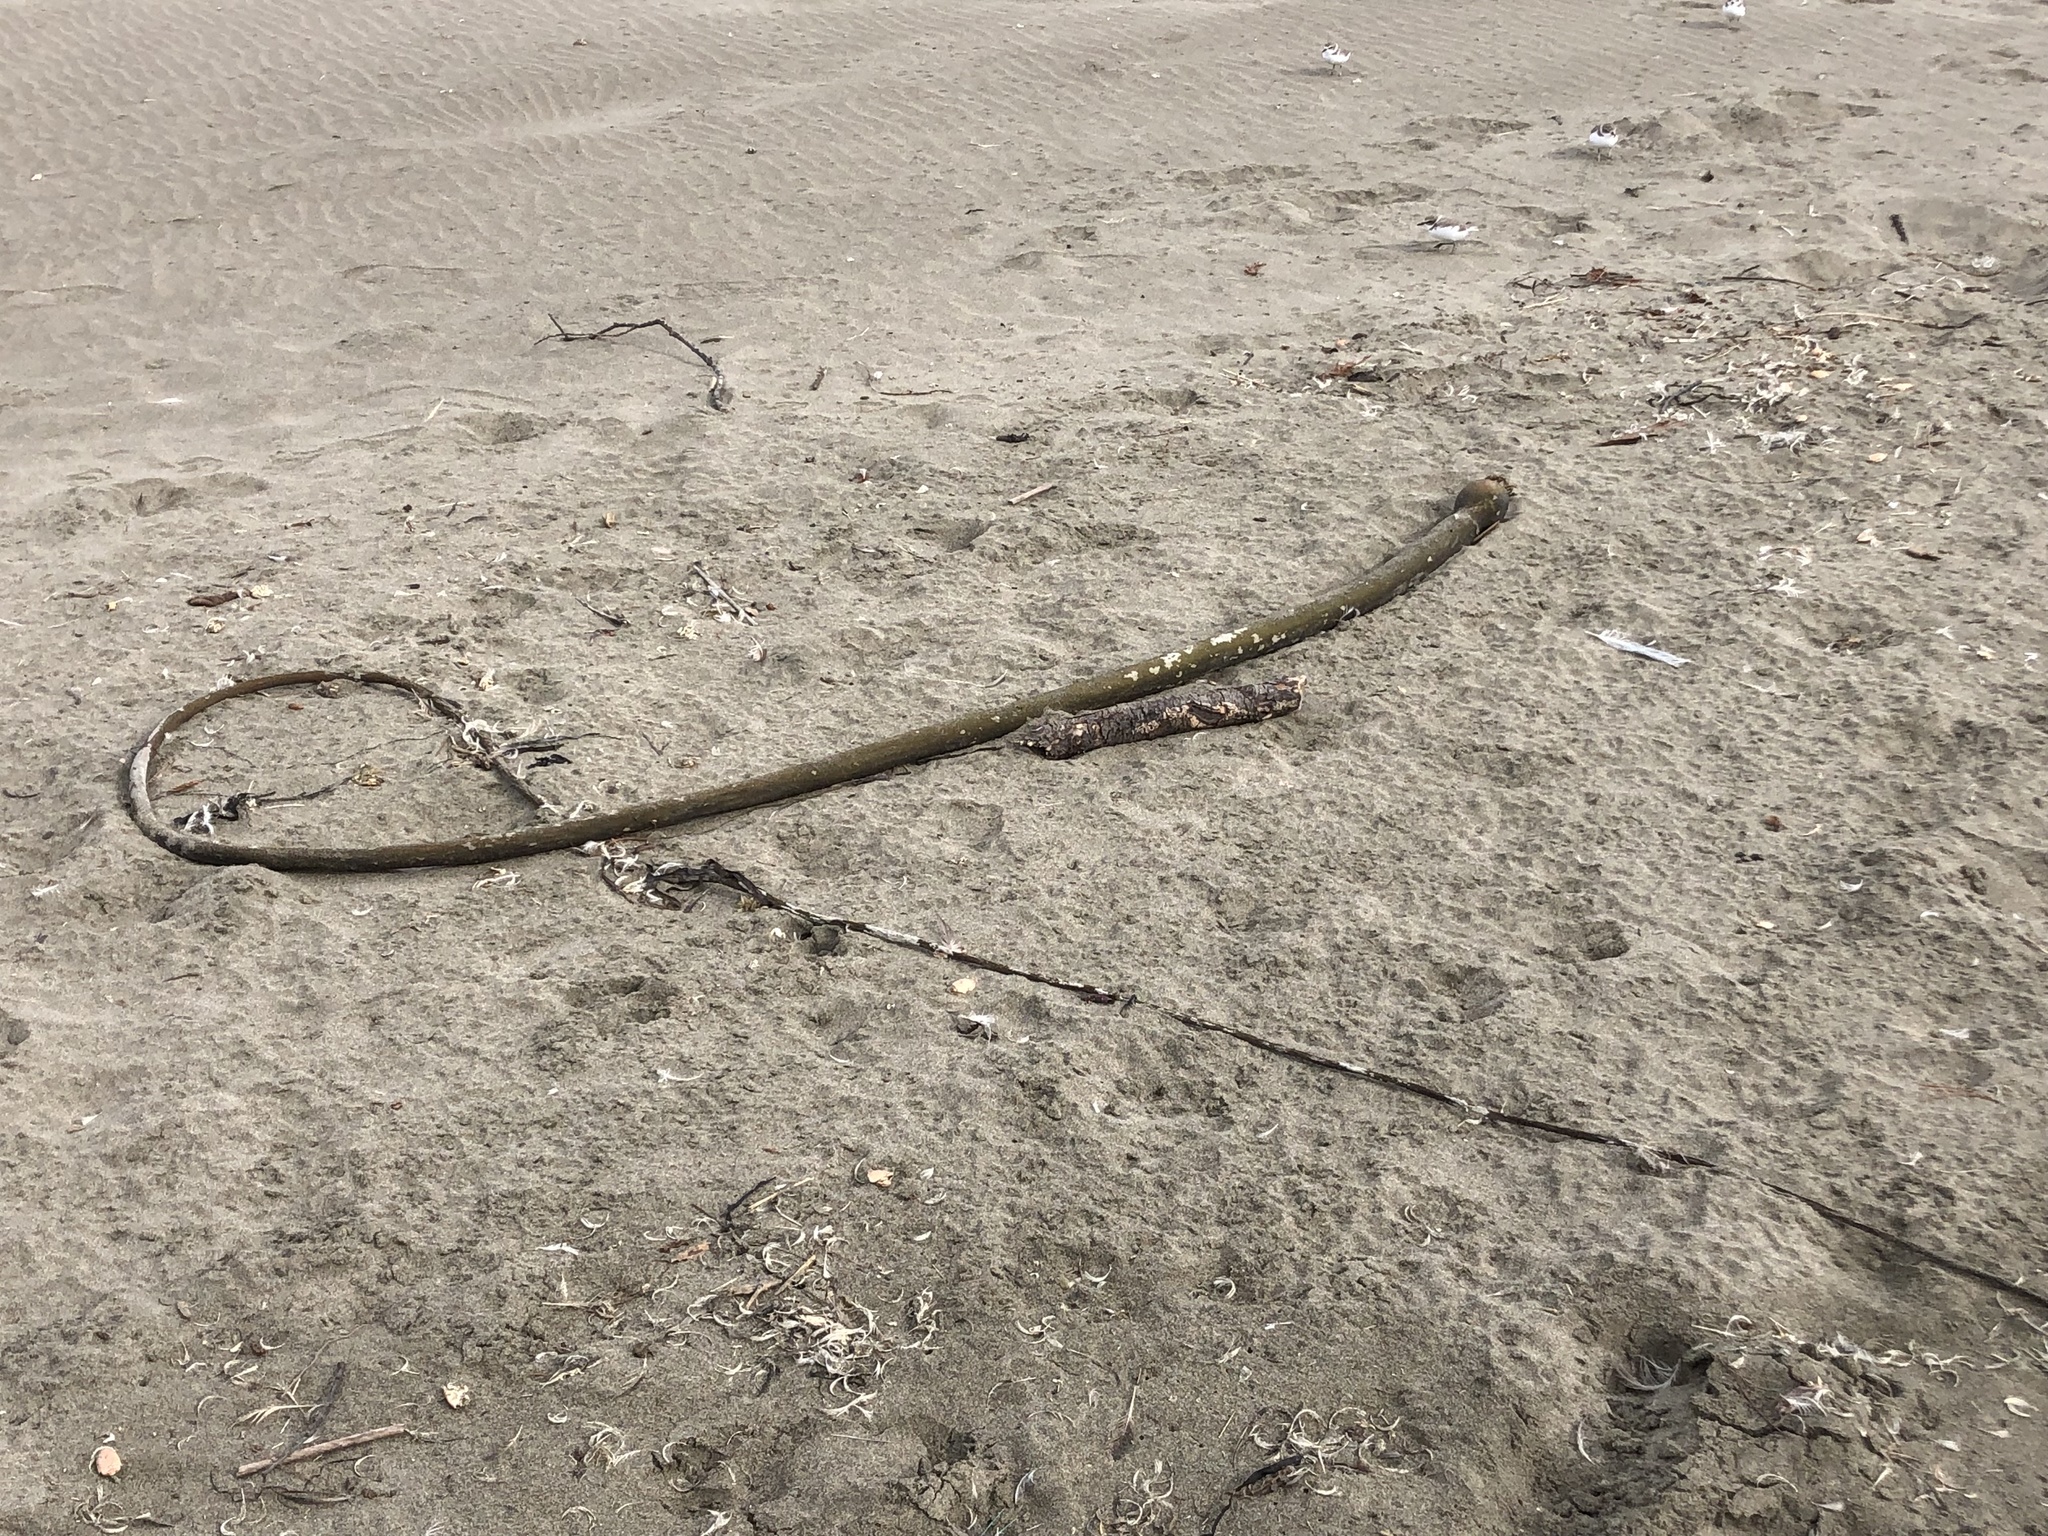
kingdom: Chromista
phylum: Ochrophyta
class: Phaeophyceae
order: Laminariales
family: Laminariaceae
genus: Nereocystis
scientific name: Nereocystis luetkeana
